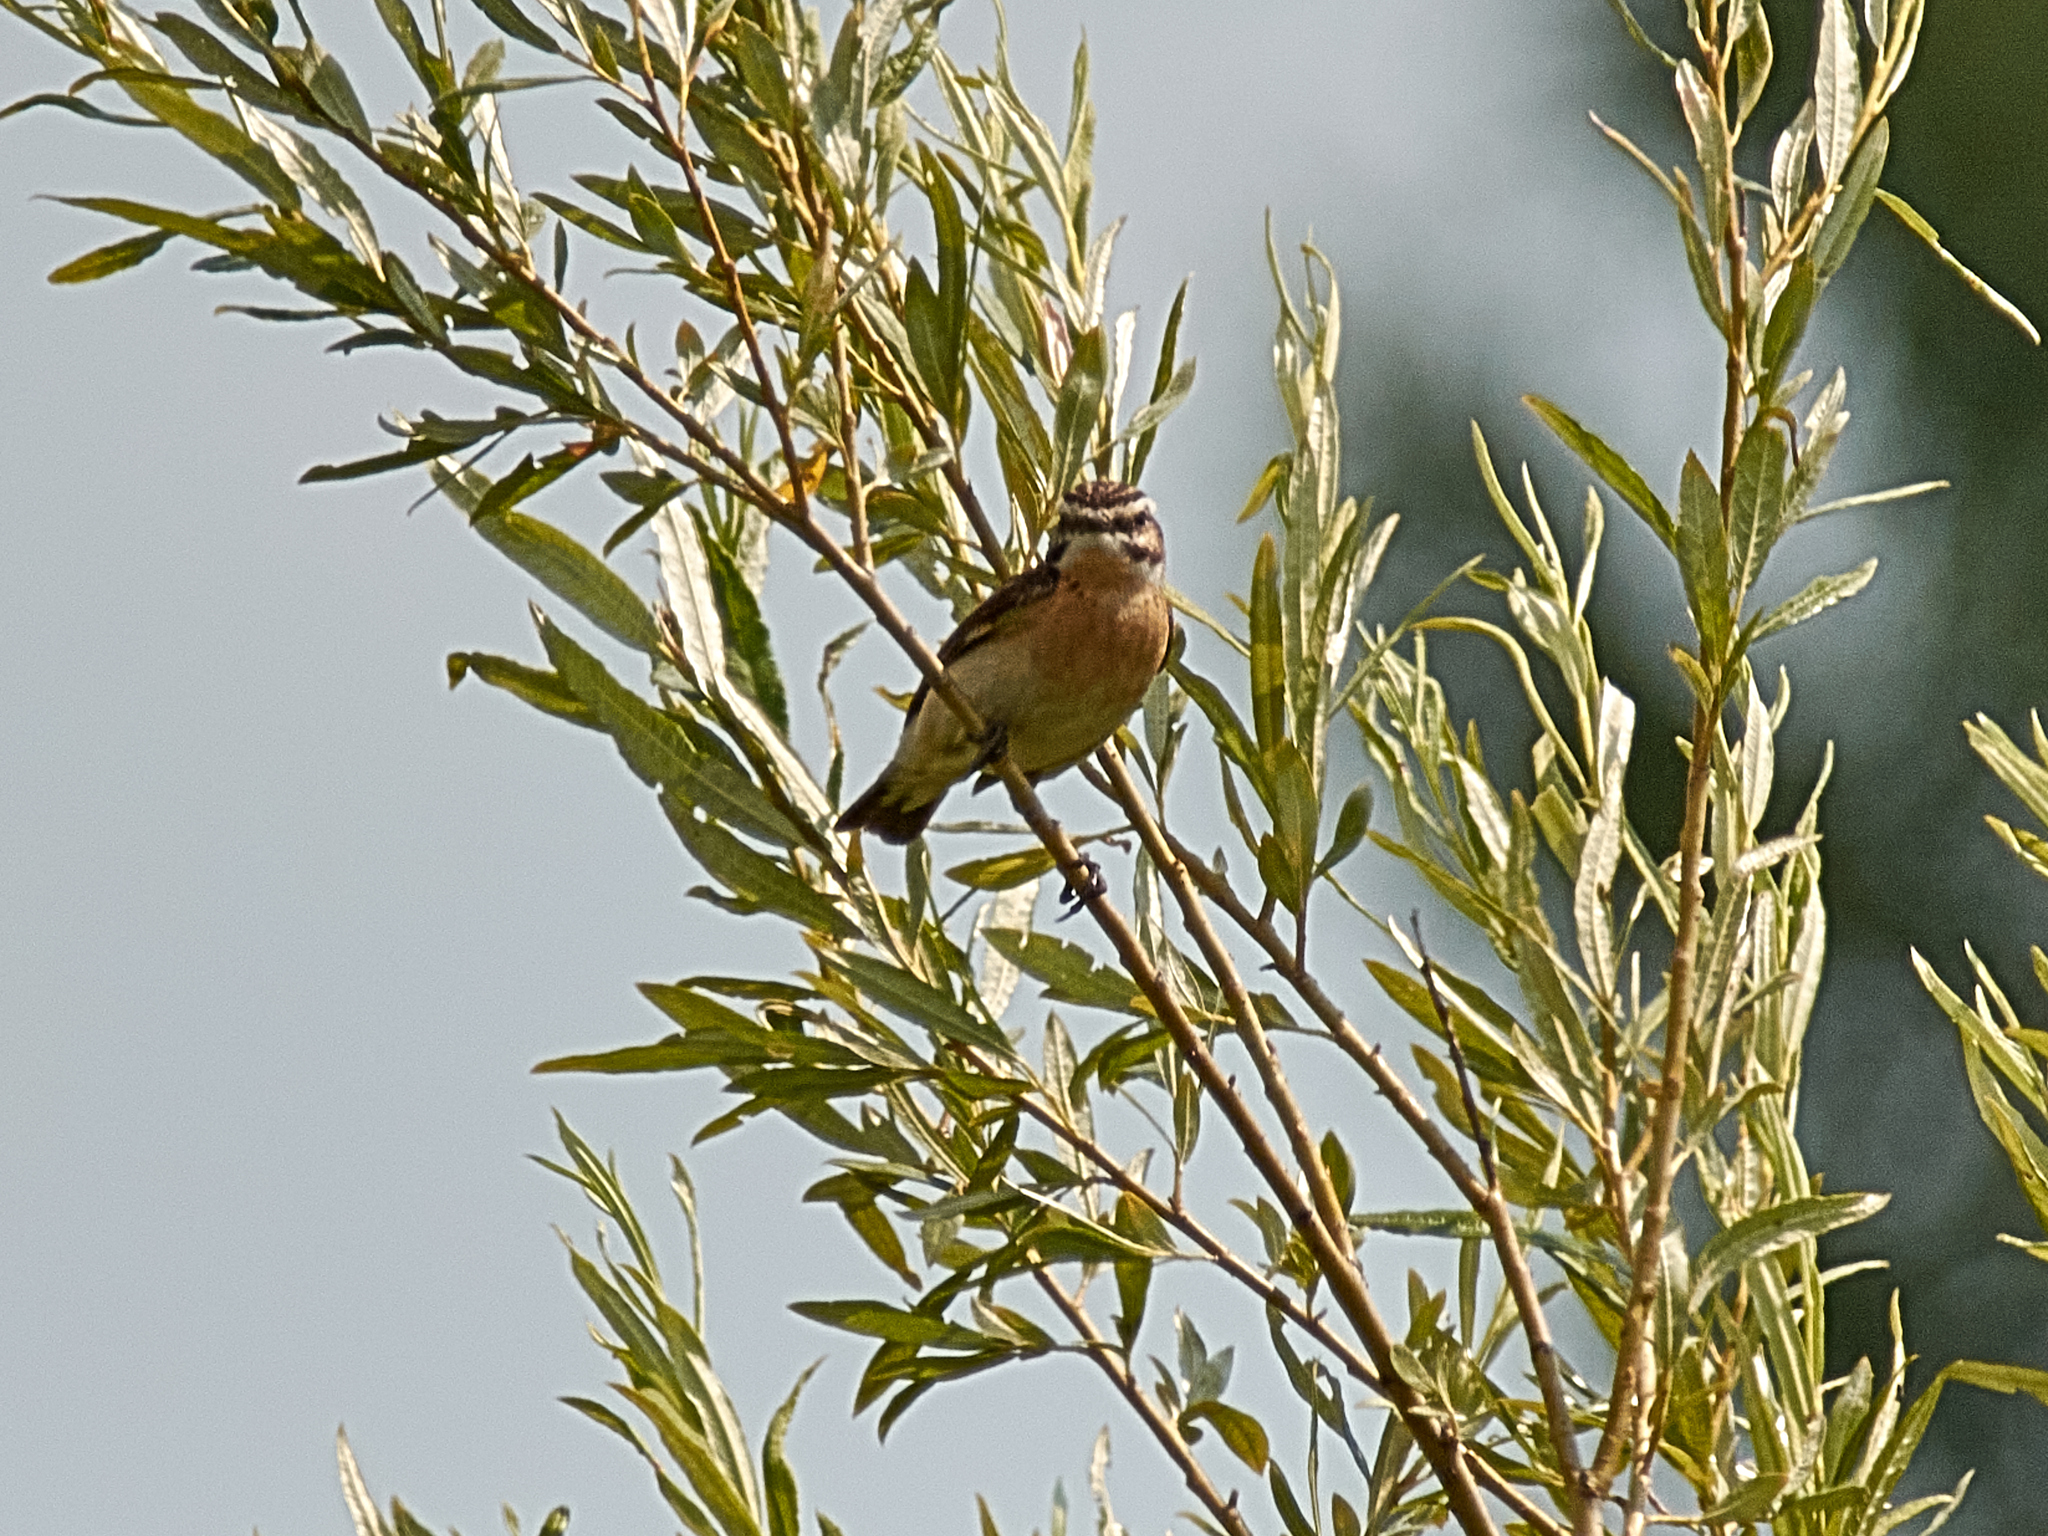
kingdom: Animalia
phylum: Chordata
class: Aves
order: Passeriformes
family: Muscicapidae
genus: Saxicola
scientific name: Saxicola rubetra
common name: Whinchat
